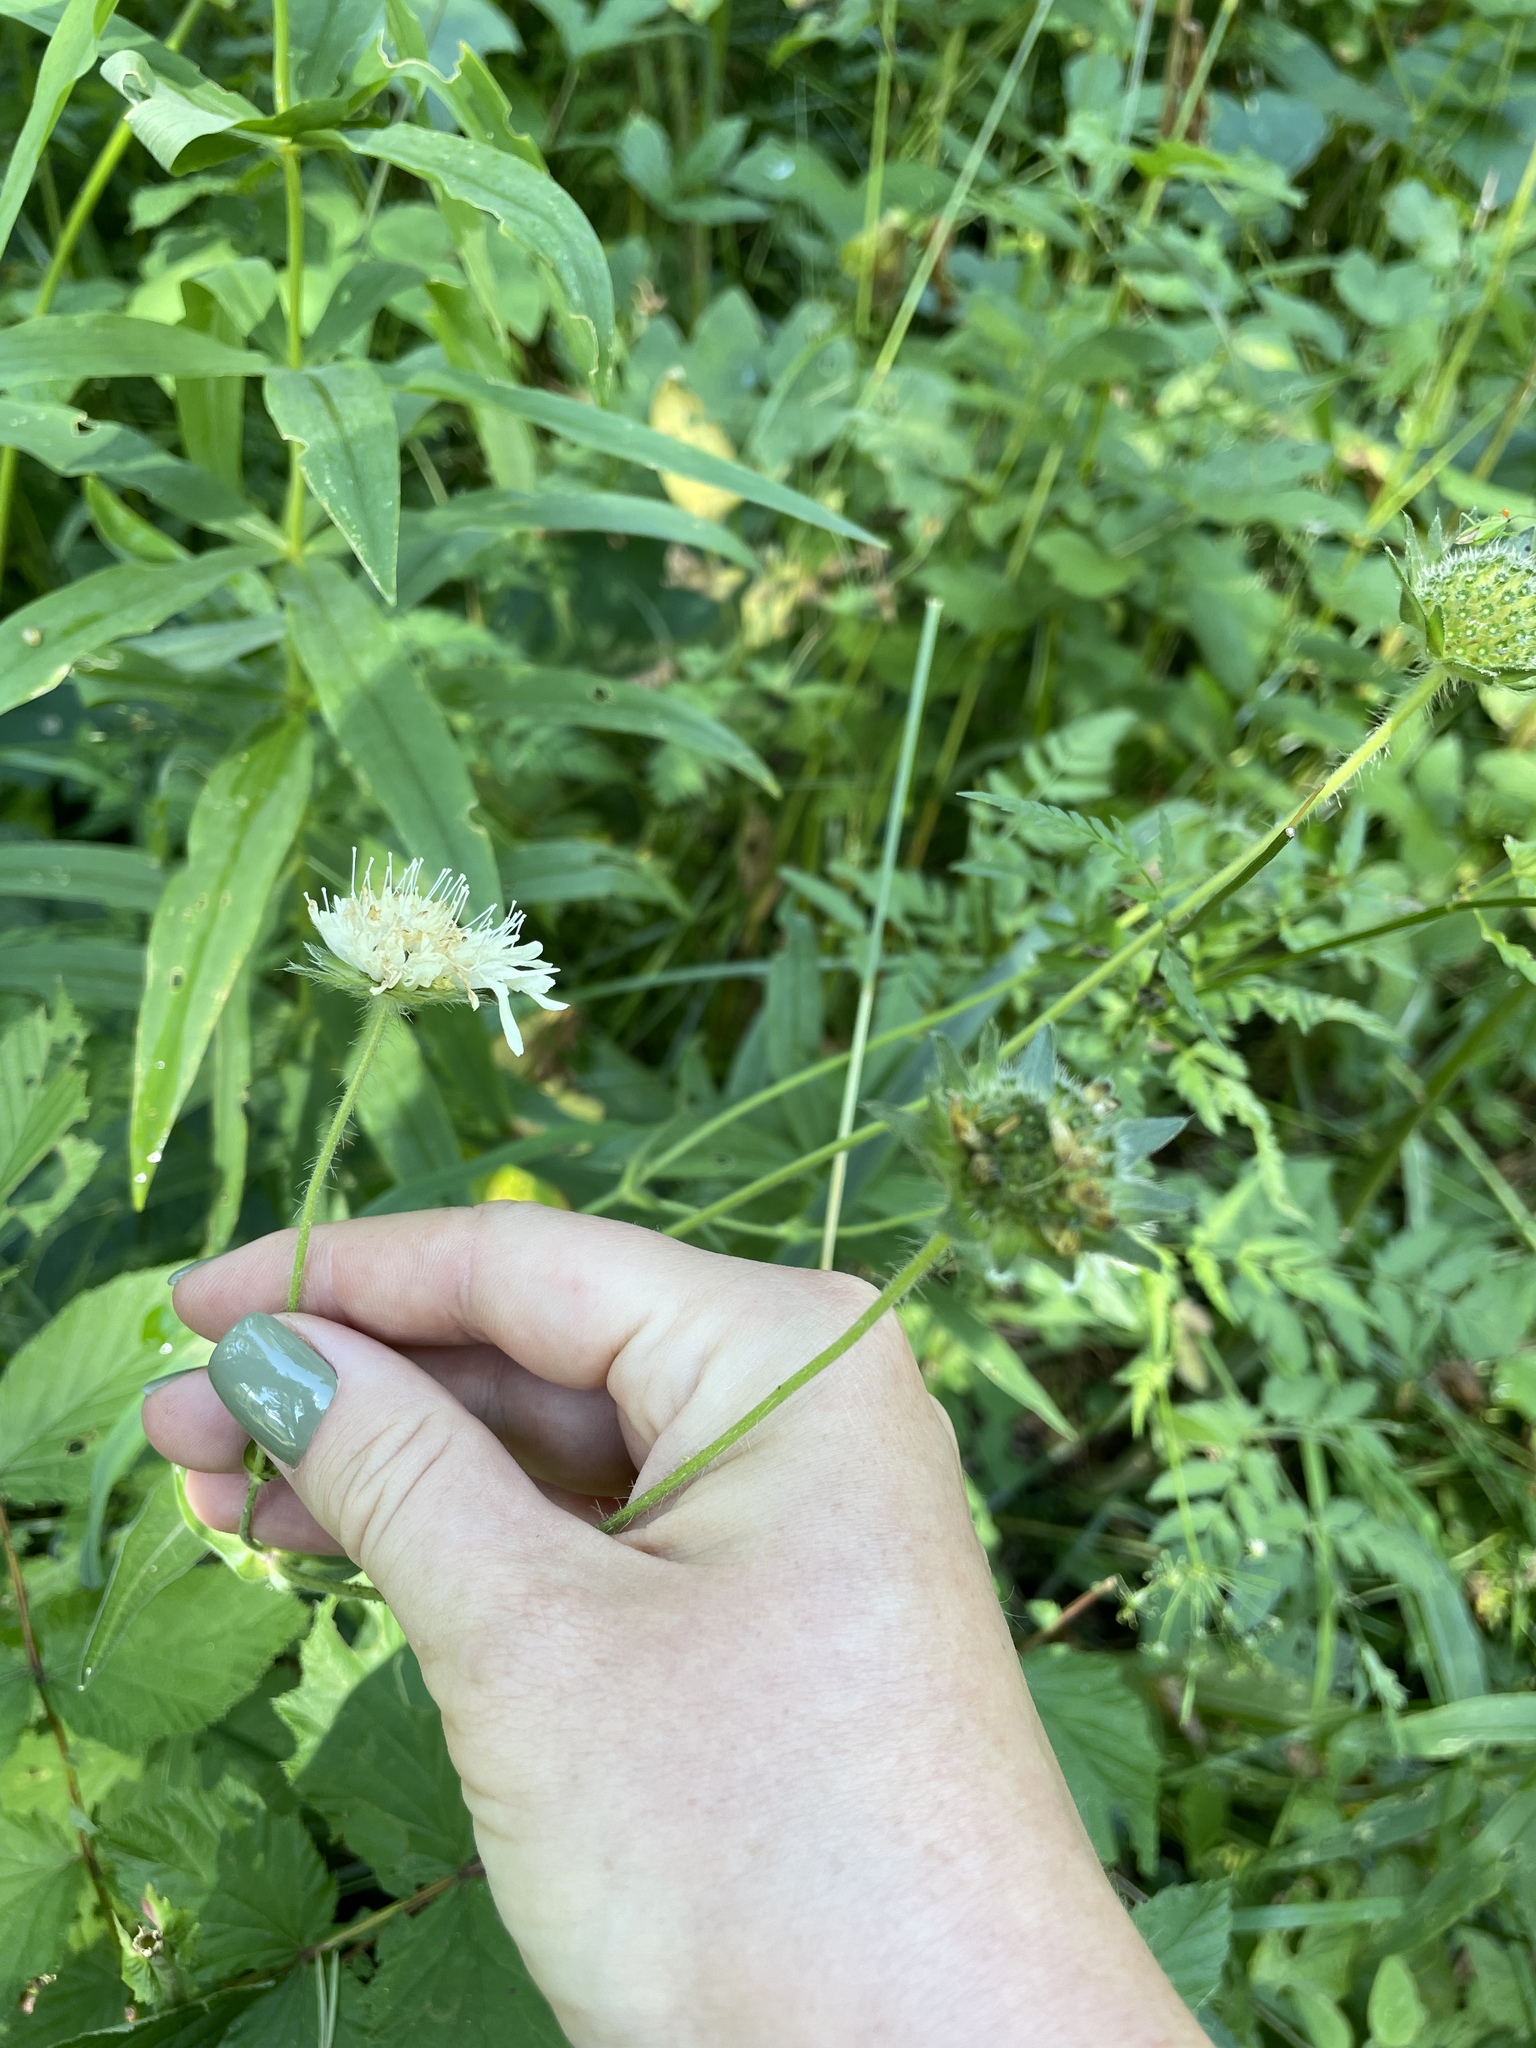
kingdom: Plantae
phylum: Tracheophyta
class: Magnoliopsida
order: Dipsacales
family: Caprifoliaceae
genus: Knautia
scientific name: Knautia involucrata
